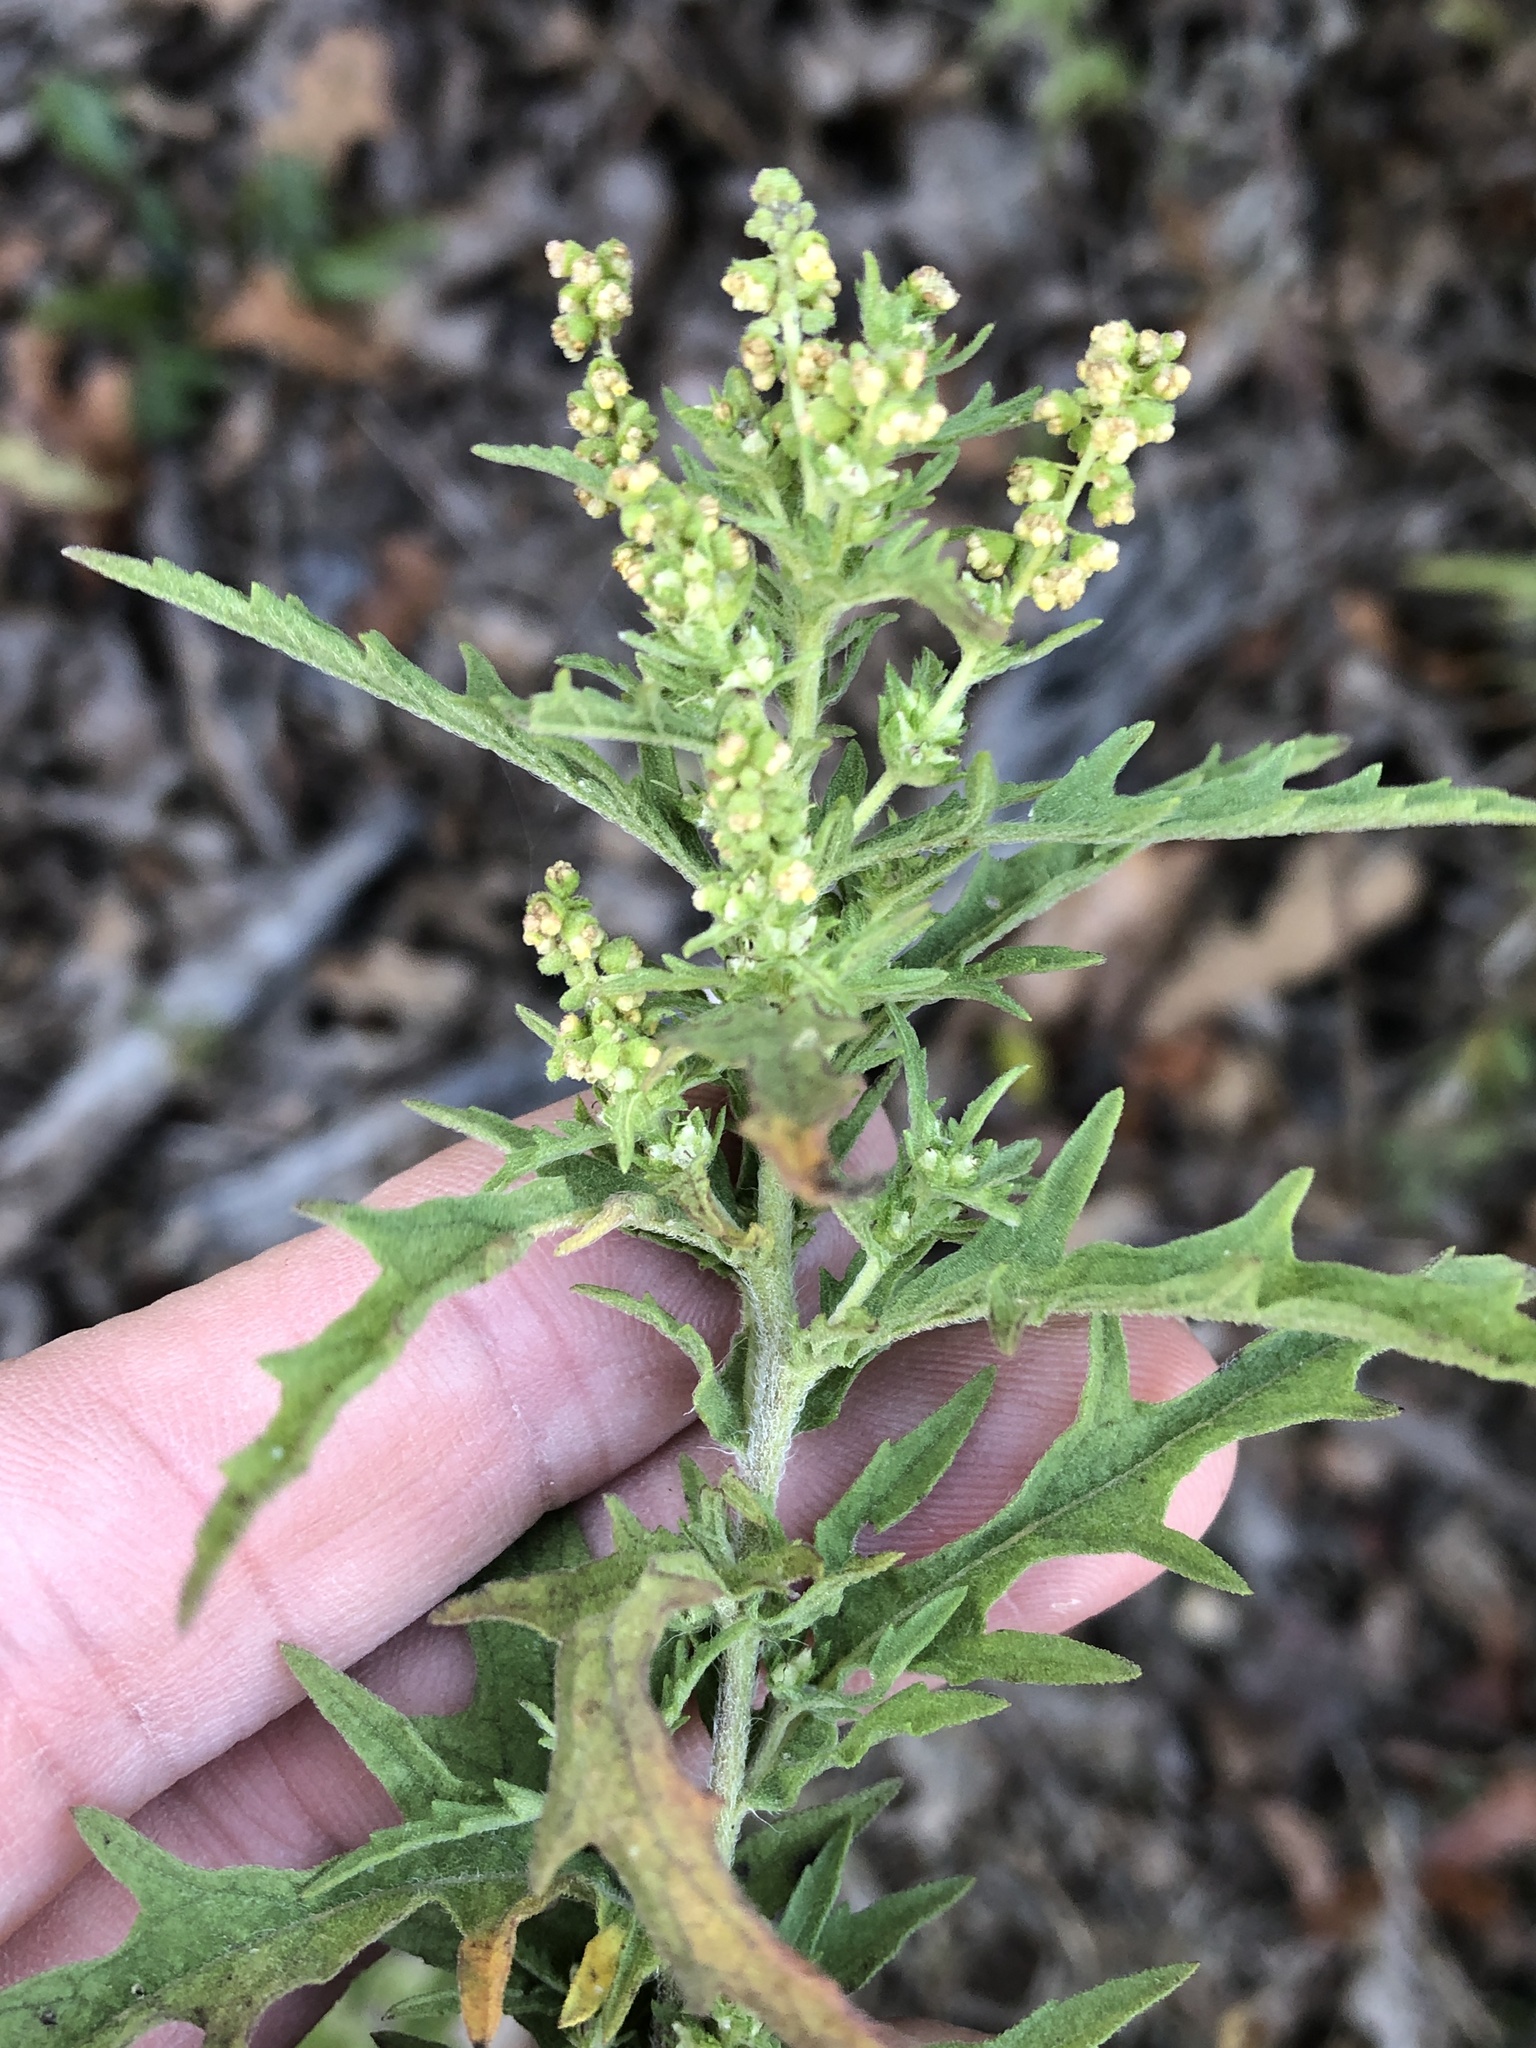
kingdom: Plantae
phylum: Tracheophyta
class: Magnoliopsida
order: Asterales
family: Asteraceae
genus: Ambrosia
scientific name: Ambrosia psilostachya
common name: Perennial ragweed
